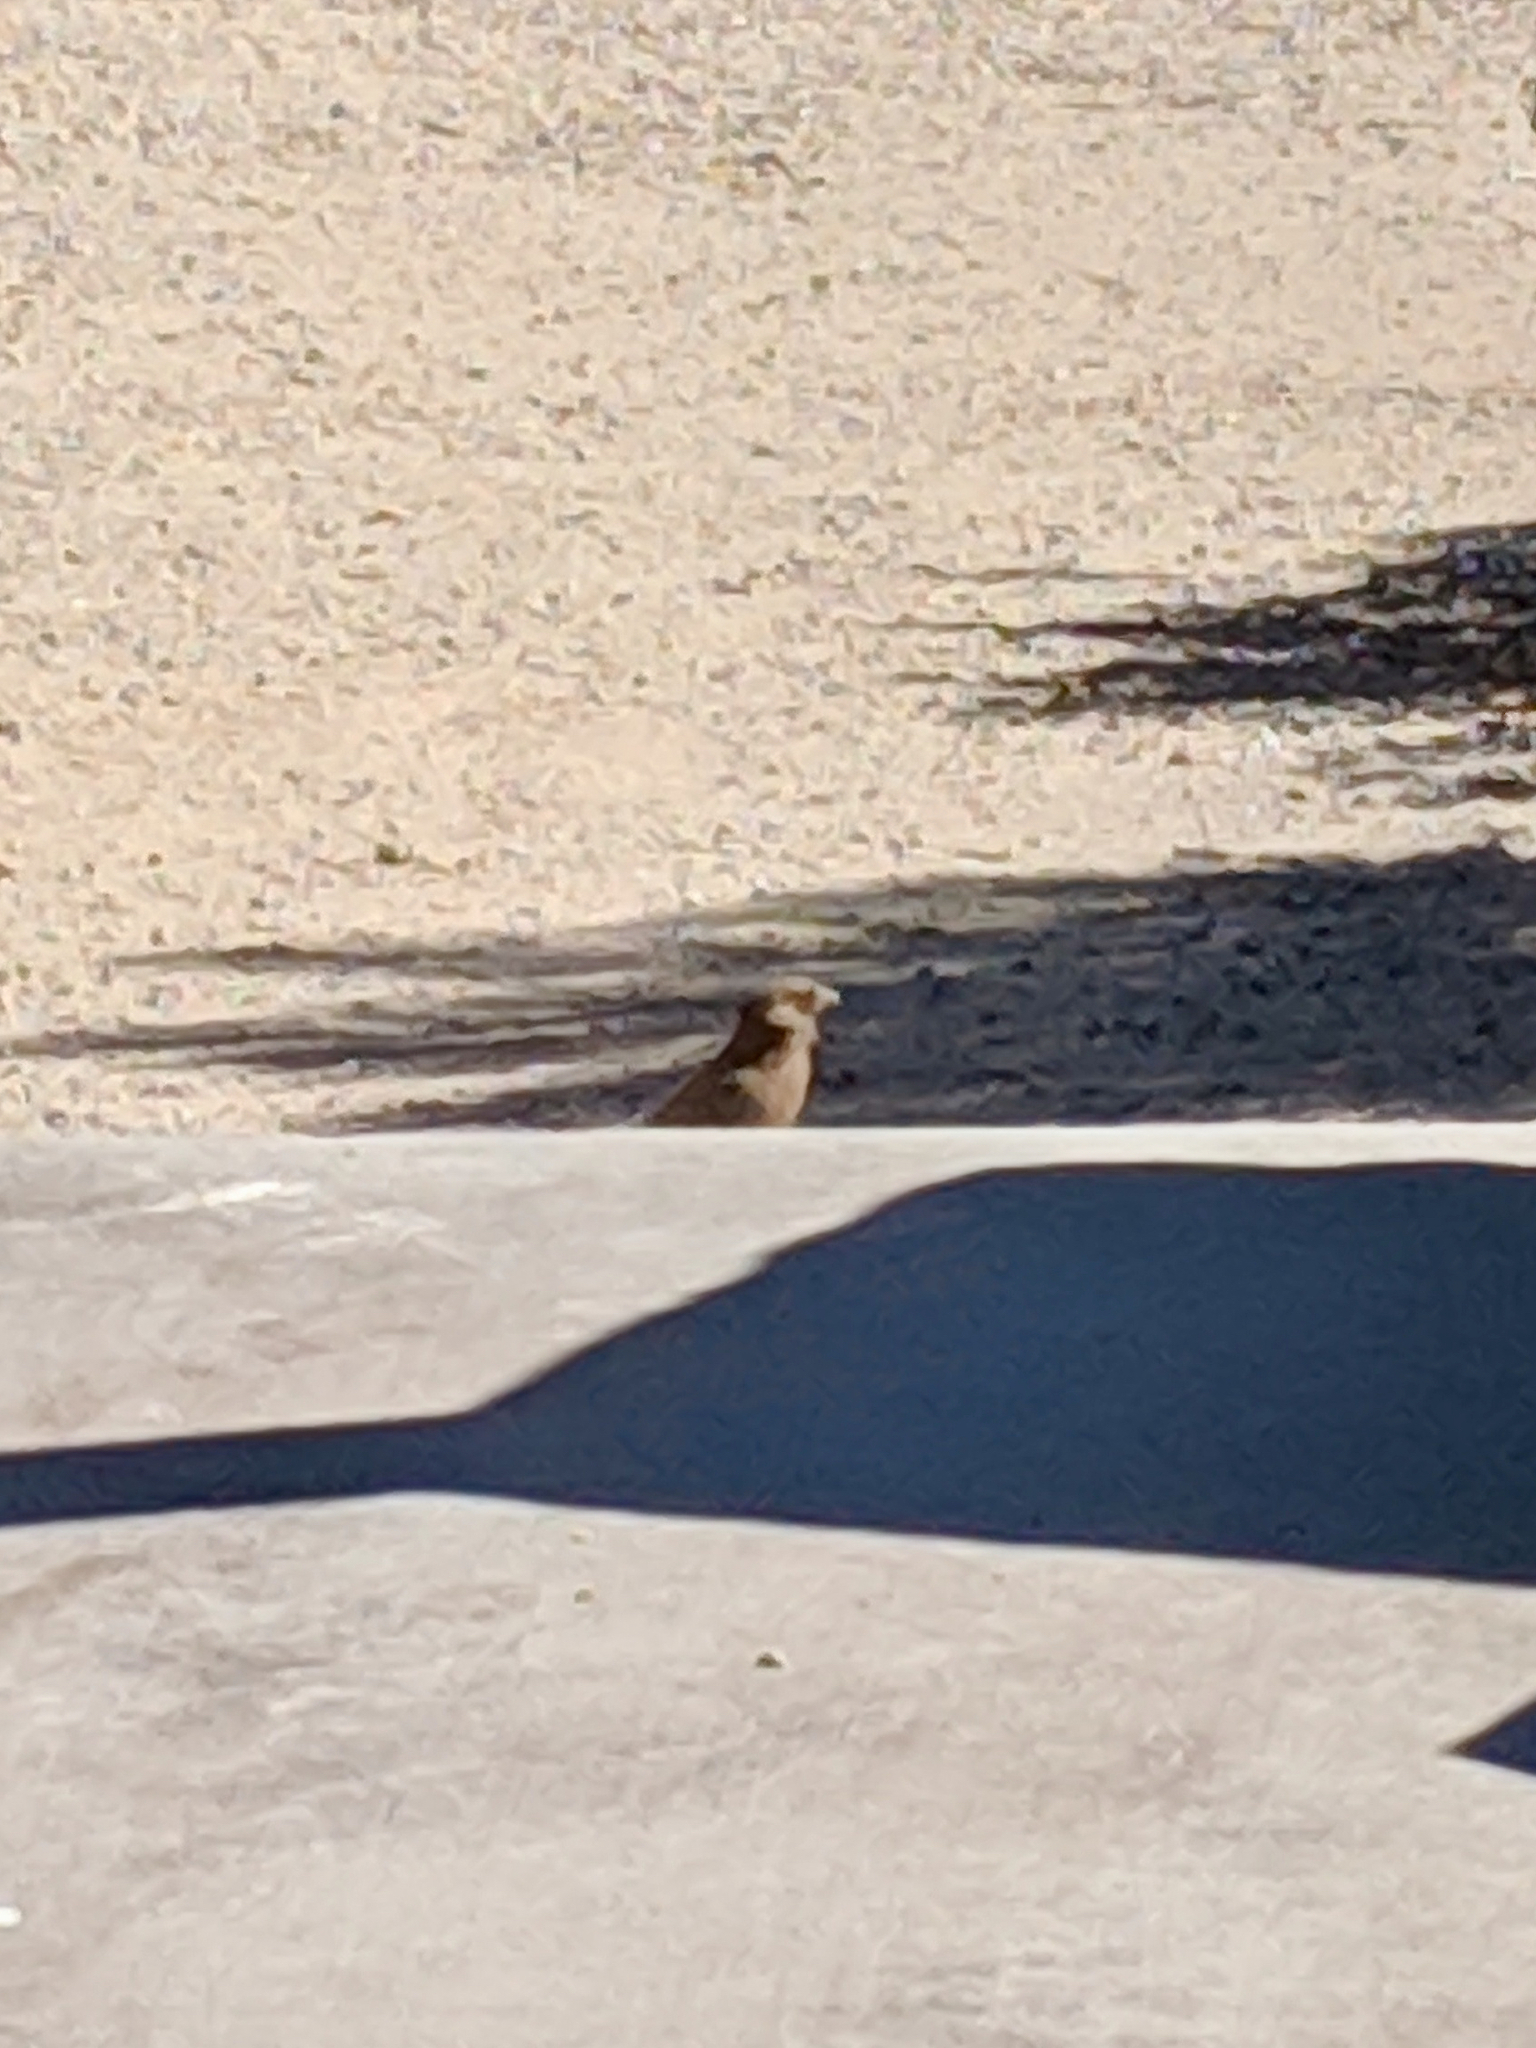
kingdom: Animalia
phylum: Chordata
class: Aves
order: Passeriformes
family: Passerellidae
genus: Melozone
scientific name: Melozone aberti
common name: Abert's towhee
